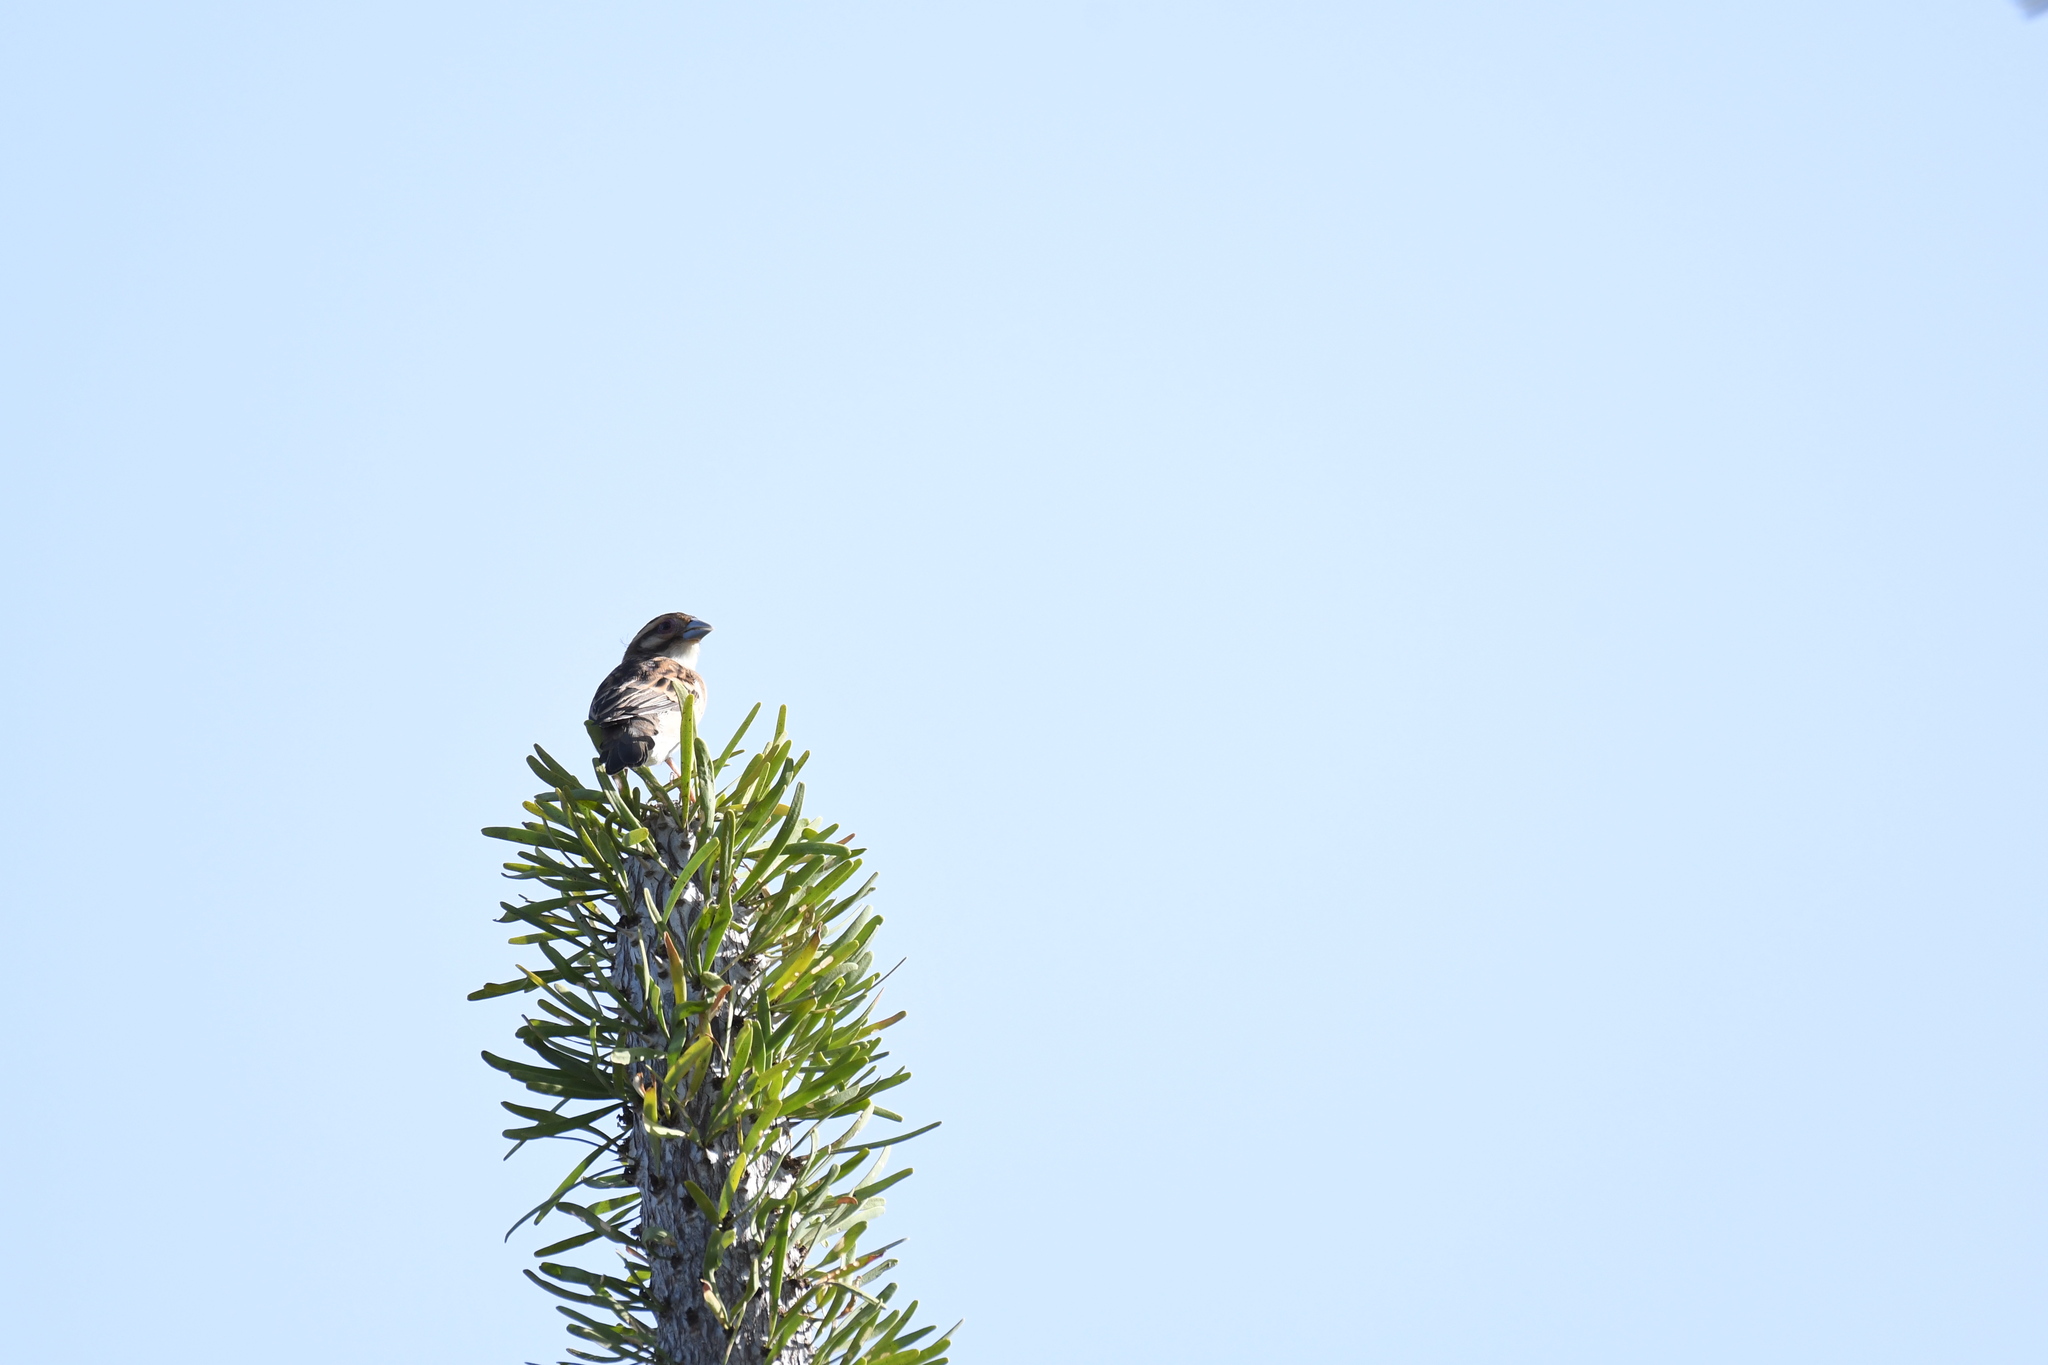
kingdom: Animalia
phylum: Chordata
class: Aves
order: Passeriformes
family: Ploceidae
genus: Ploceus
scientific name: Ploceus sakalava
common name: Sakalava weaver
